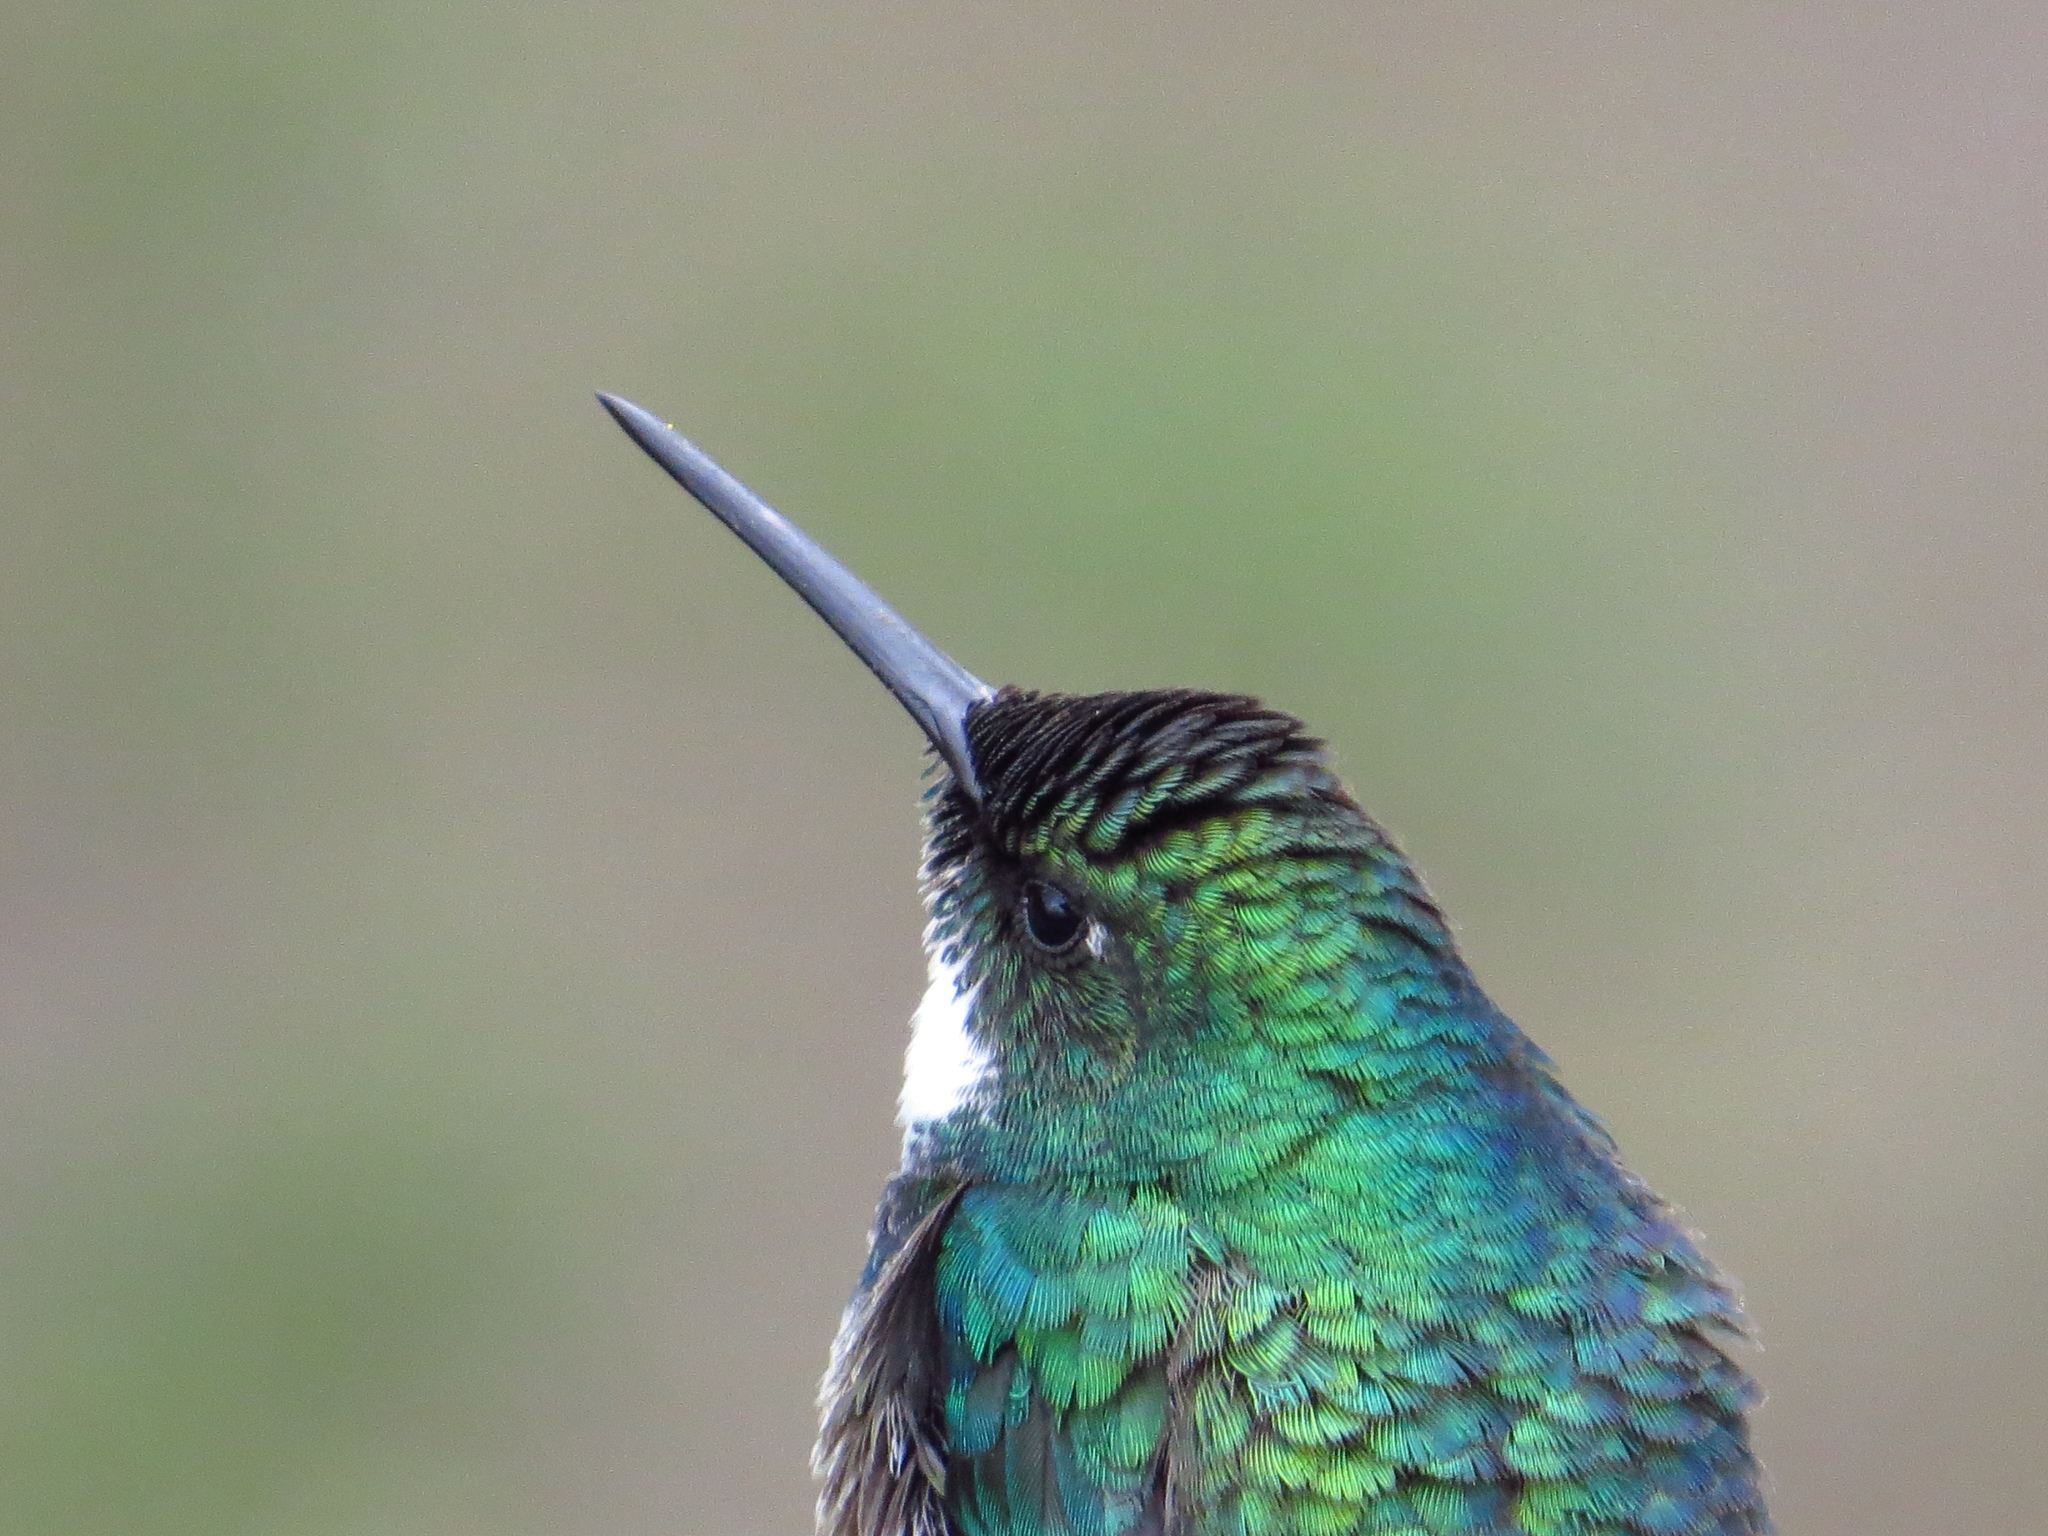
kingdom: Animalia
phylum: Chordata
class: Aves
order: Apodiformes
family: Trochilidae
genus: Leucochloris
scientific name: Leucochloris albicollis
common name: White-throated hummingbird
